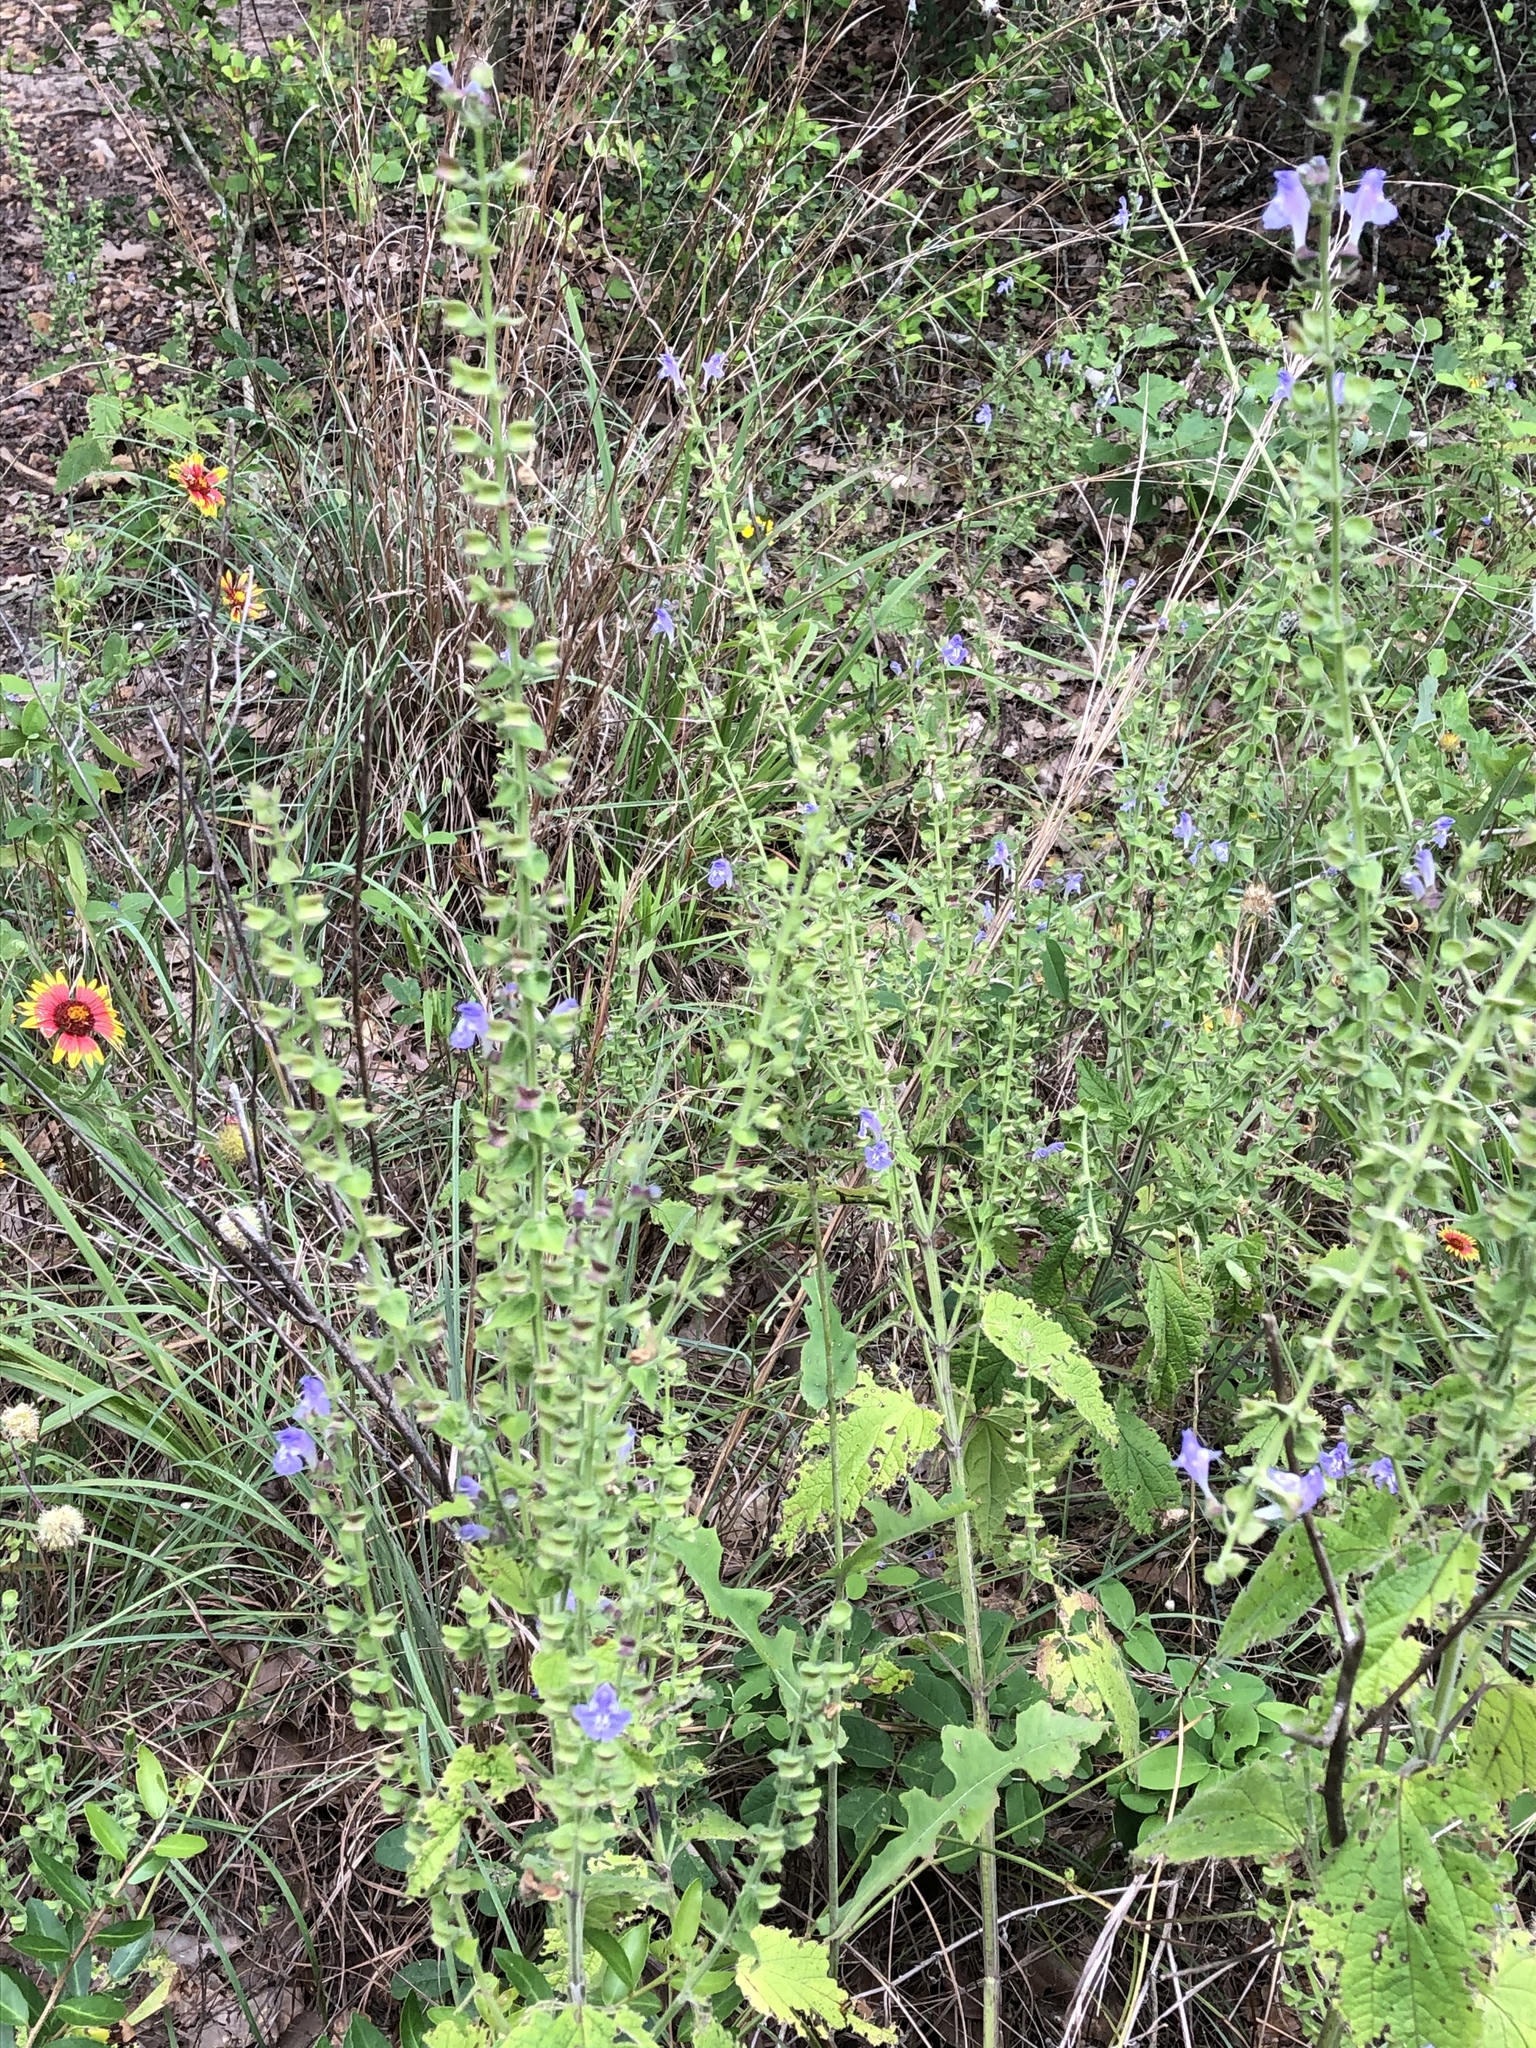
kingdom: Plantae
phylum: Tracheophyta
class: Magnoliopsida
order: Lamiales
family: Lamiaceae
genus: Scutellaria
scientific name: Scutellaria ovata
